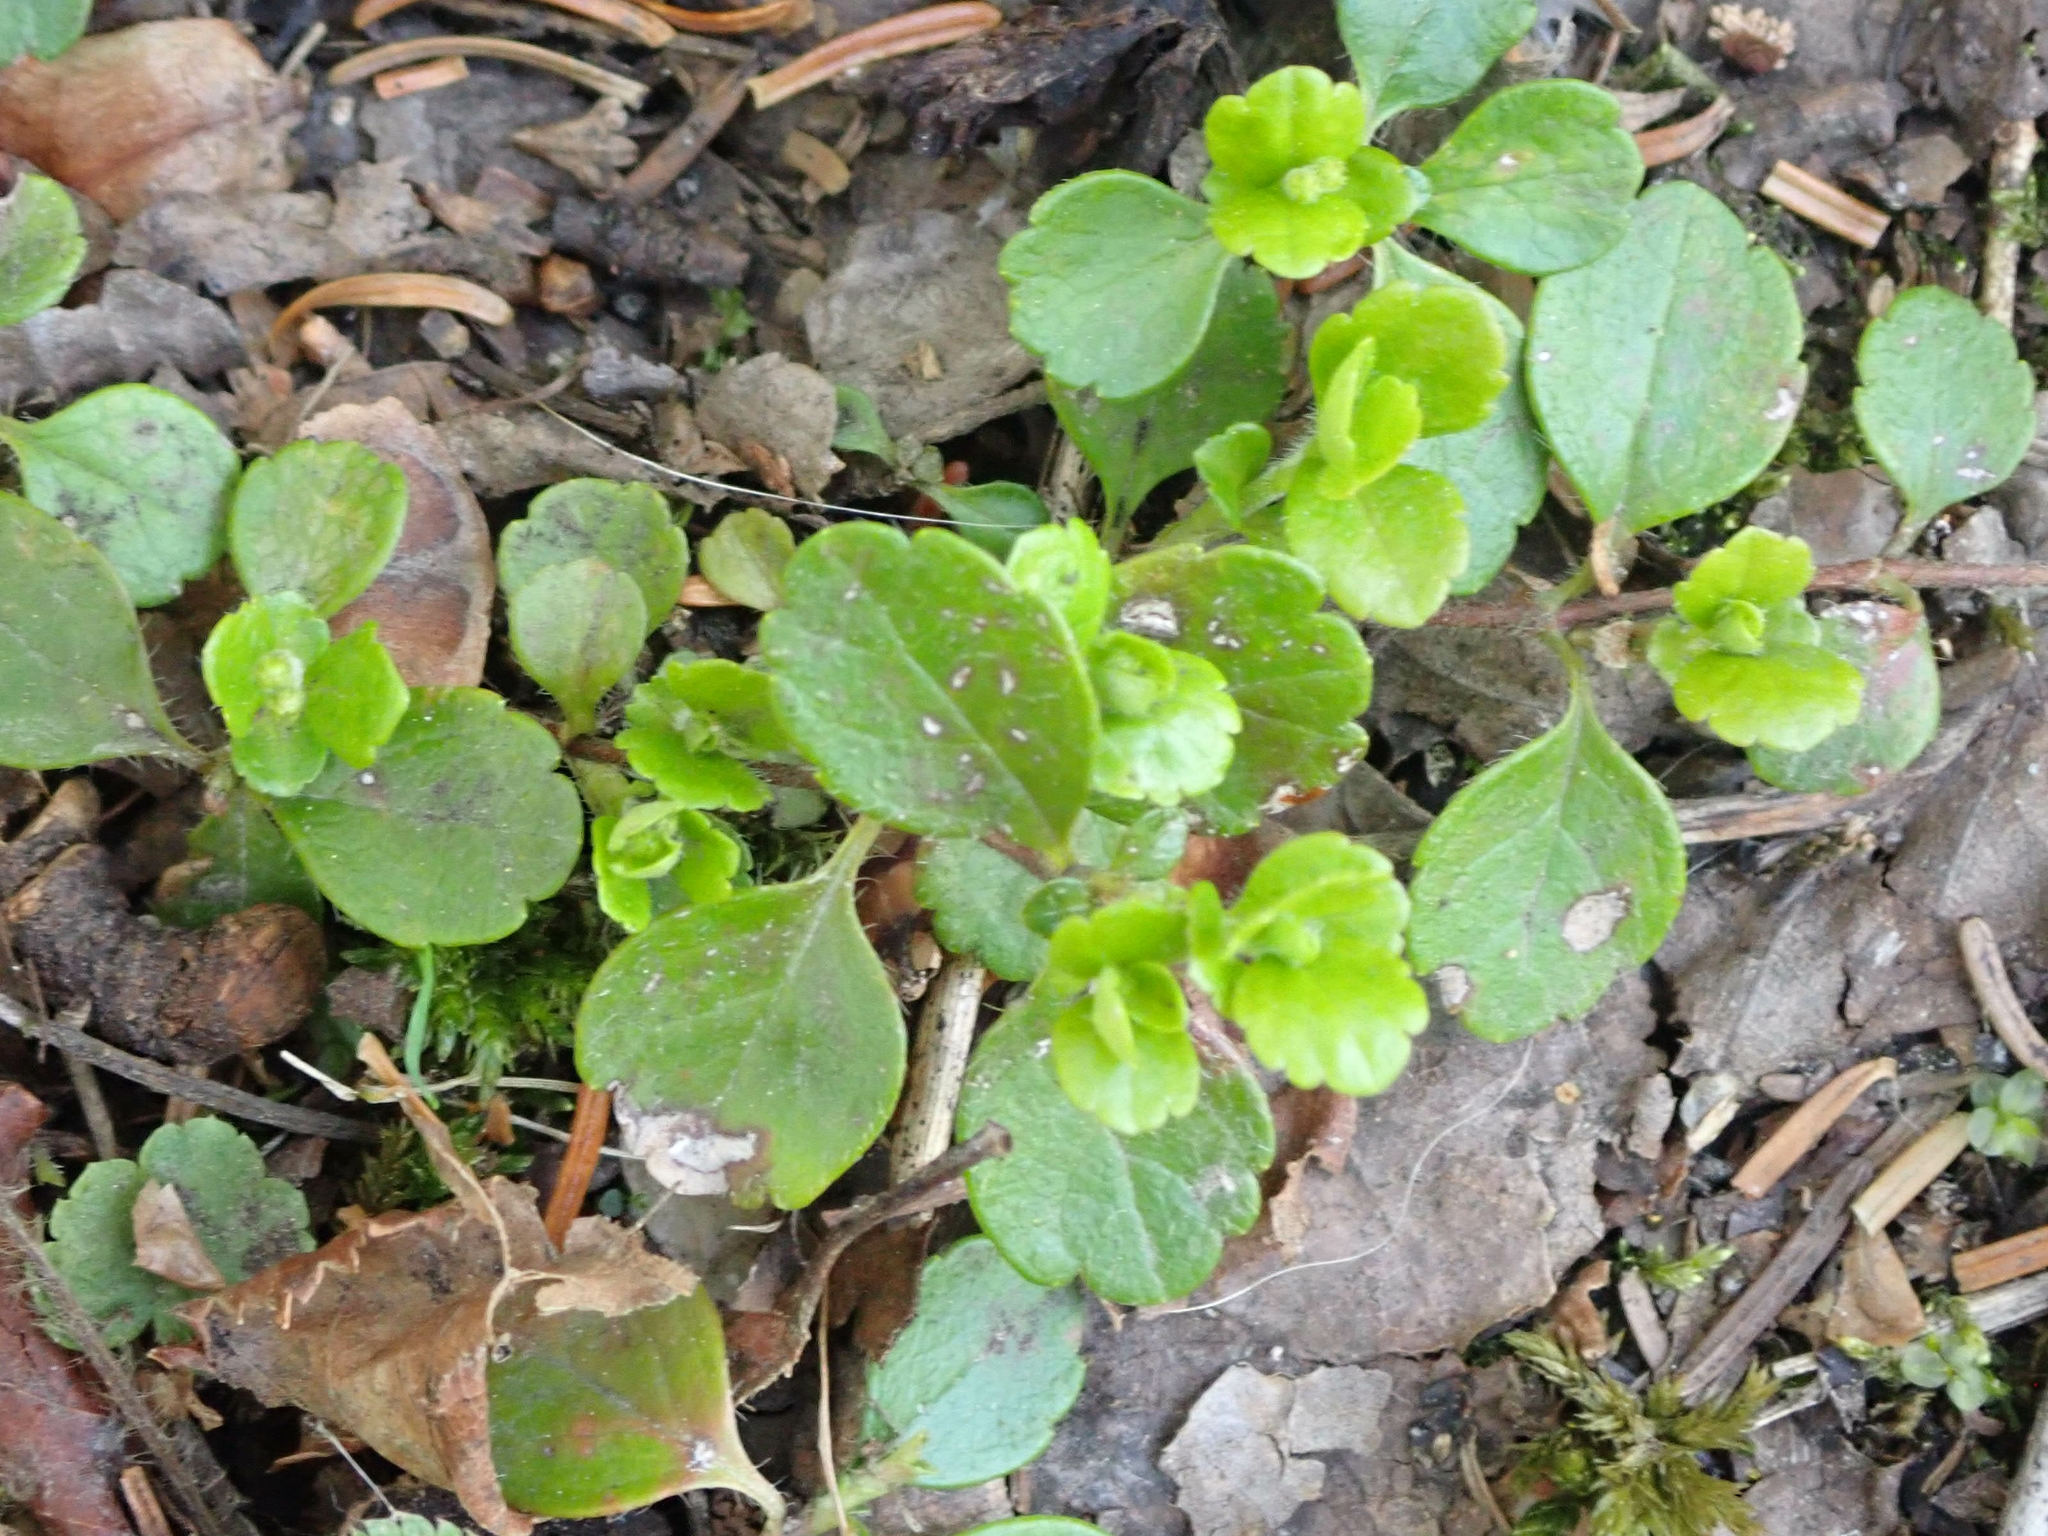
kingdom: Plantae
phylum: Tracheophyta
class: Magnoliopsida
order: Dipsacales
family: Caprifoliaceae
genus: Linnaea
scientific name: Linnaea borealis
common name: Twinflower
